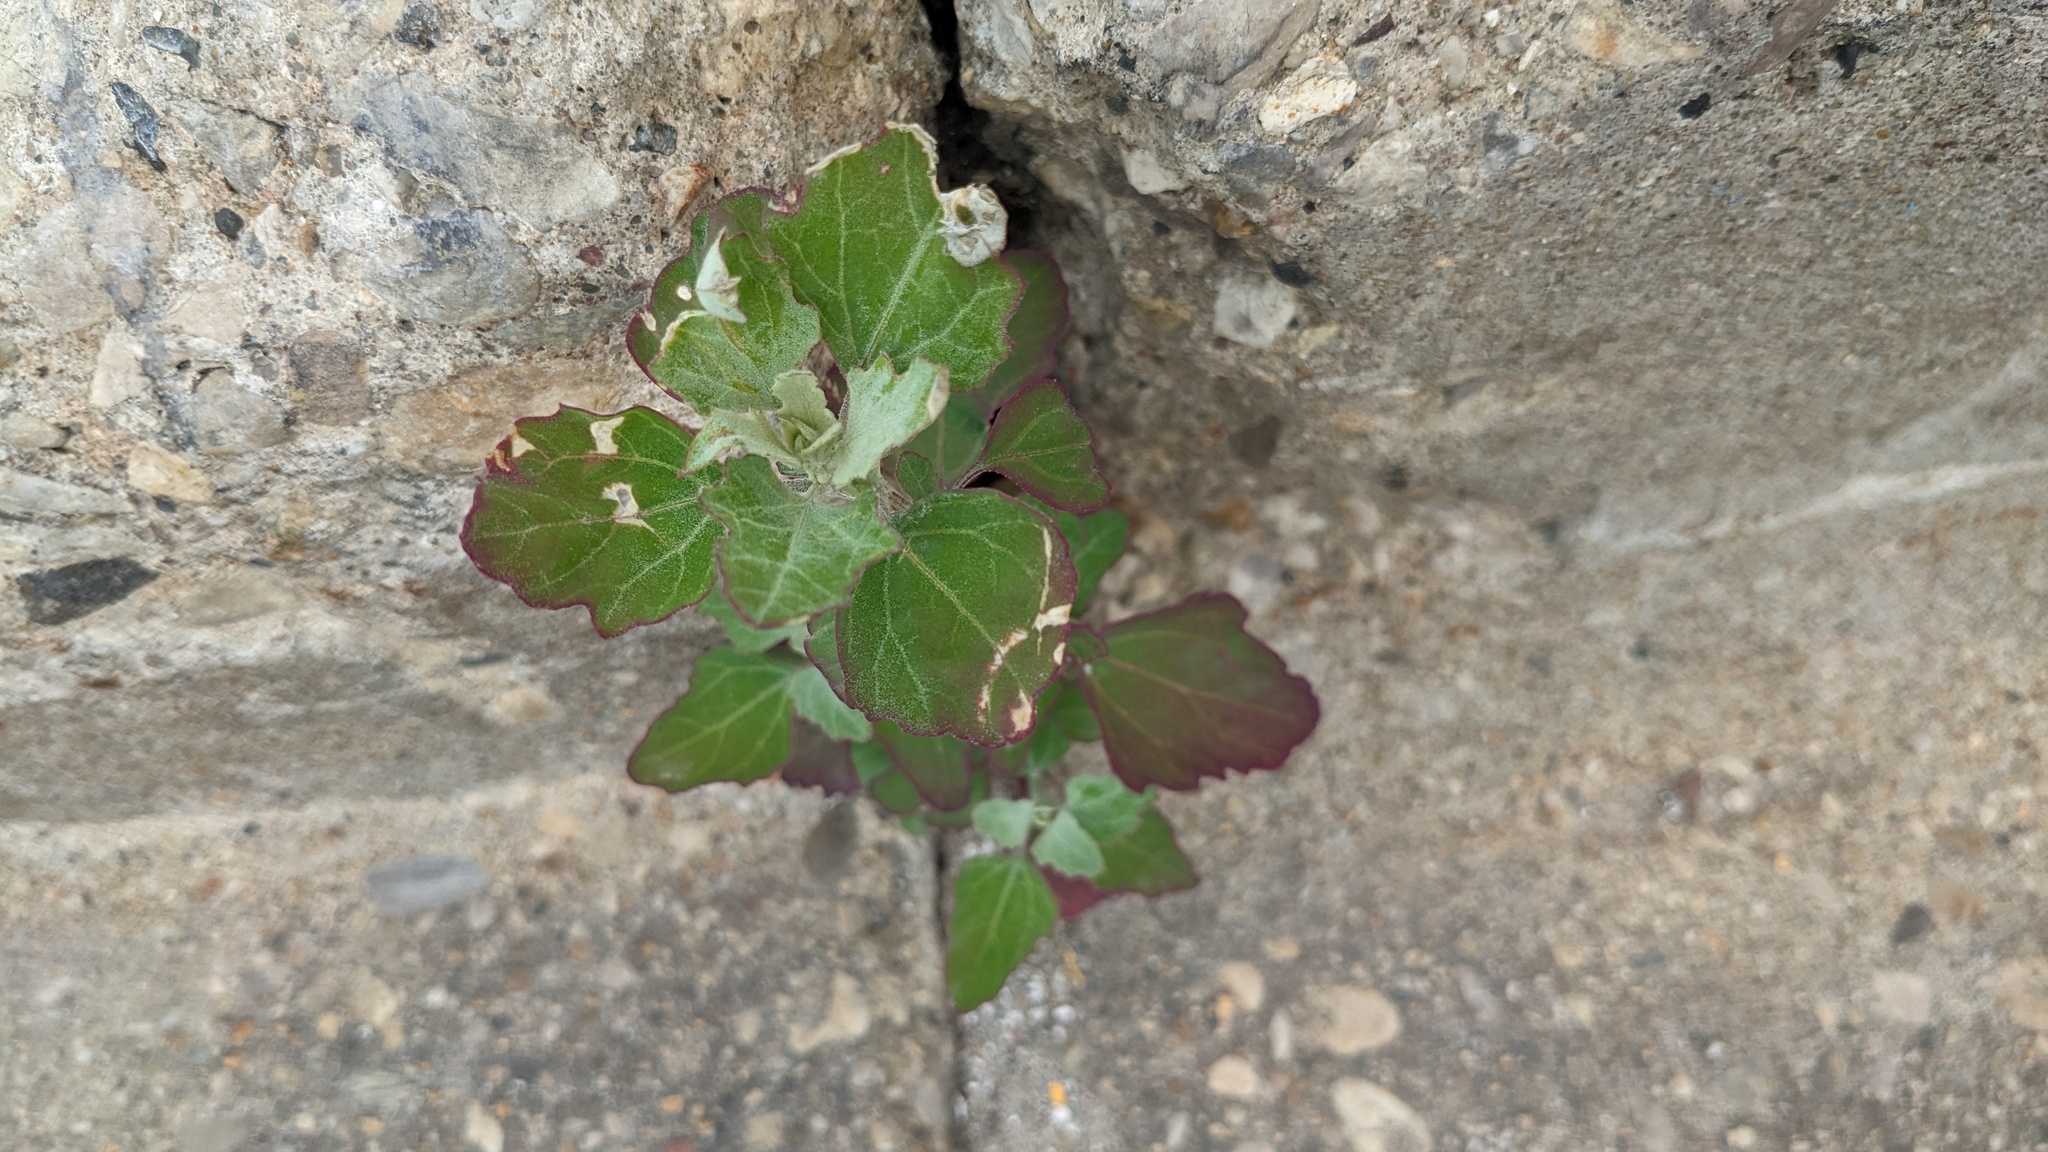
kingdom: Plantae
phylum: Tracheophyta
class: Magnoliopsida
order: Caryophyllales
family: Amaranthaceae
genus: Chenopodium
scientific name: Chenopodium album
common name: Fat-hen
